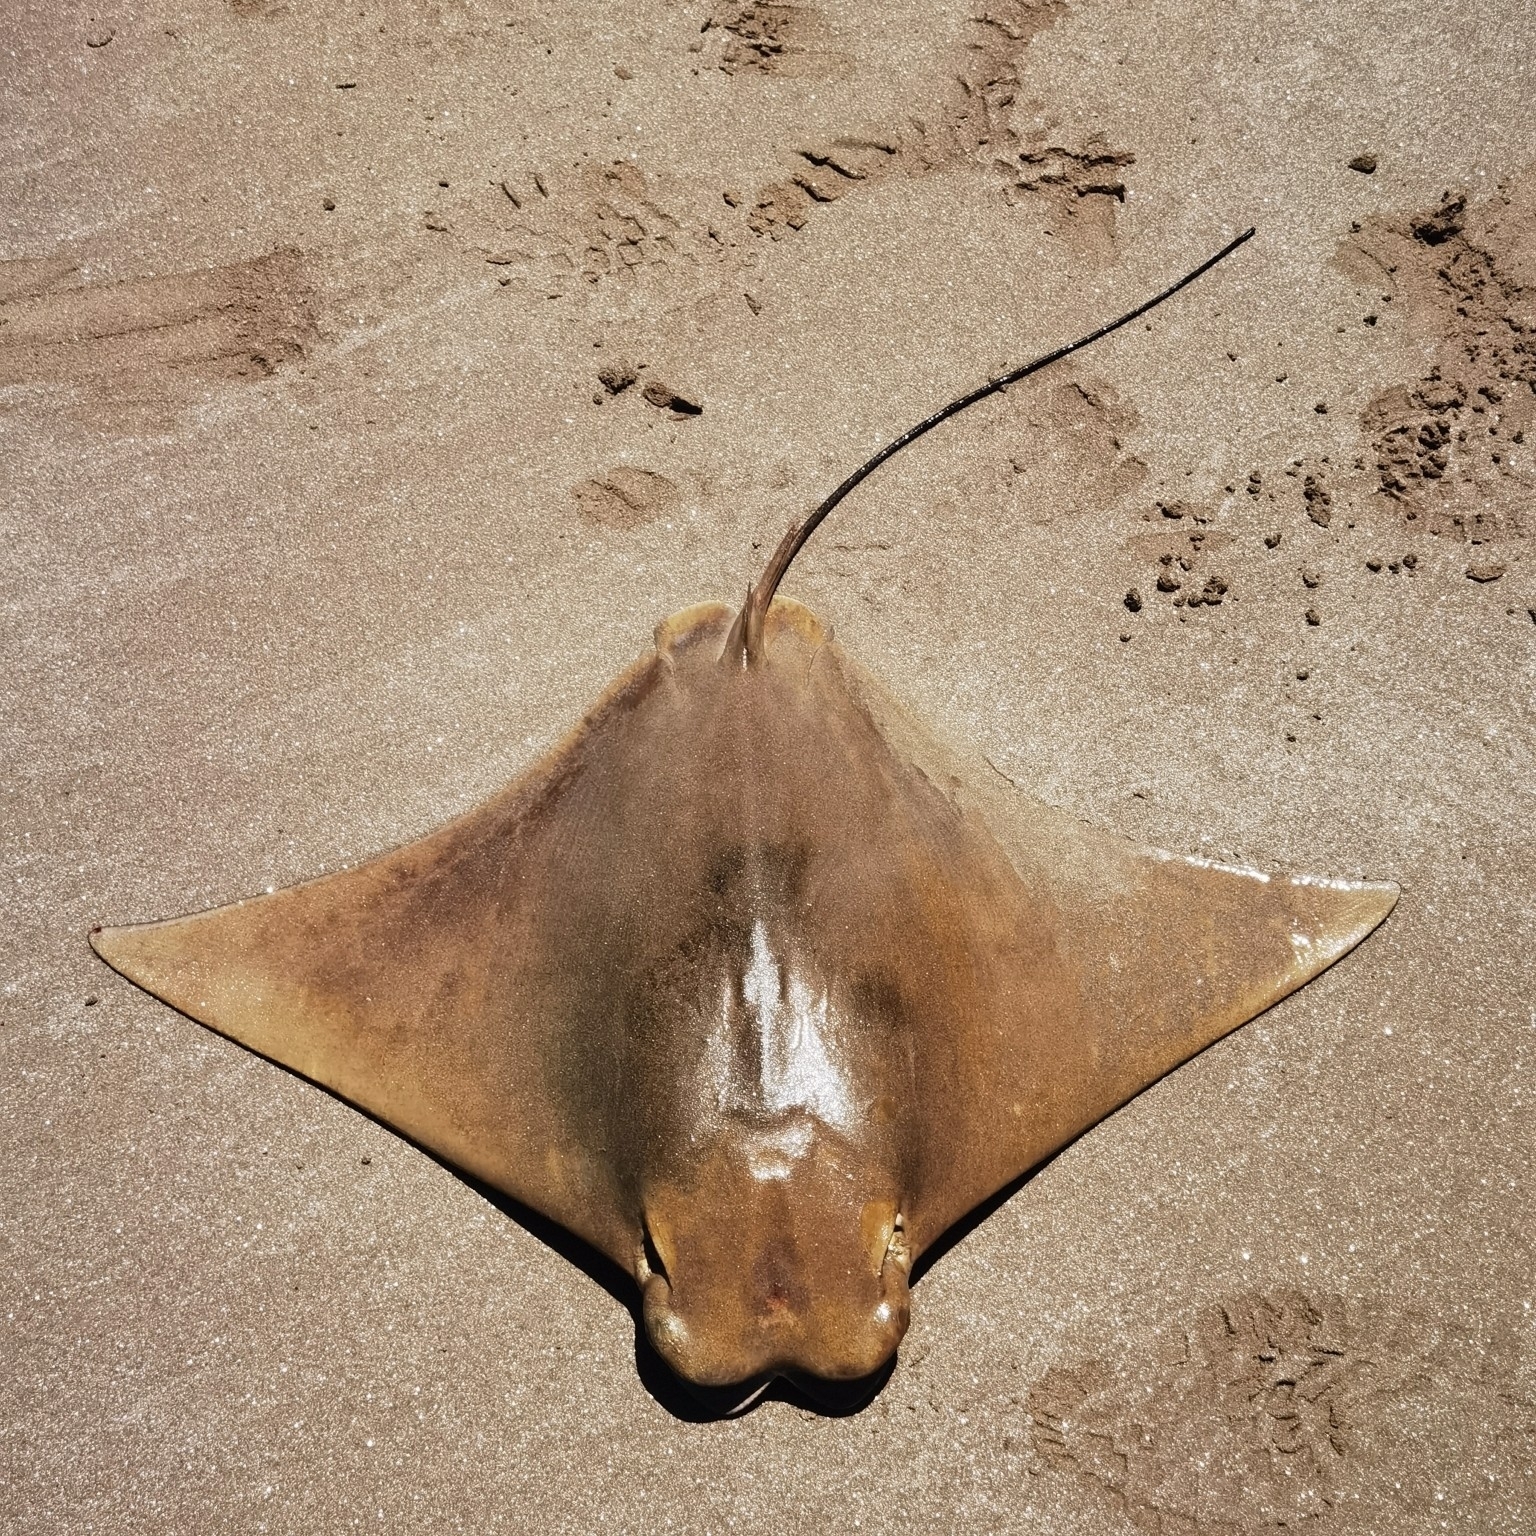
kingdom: Animalia
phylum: Chordata
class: Elasmobranchii
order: Myliobatiformes
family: Myliobatidae
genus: Rhinoptera
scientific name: Rhinoptera brasiliensis
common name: Brazilian cownose ray
